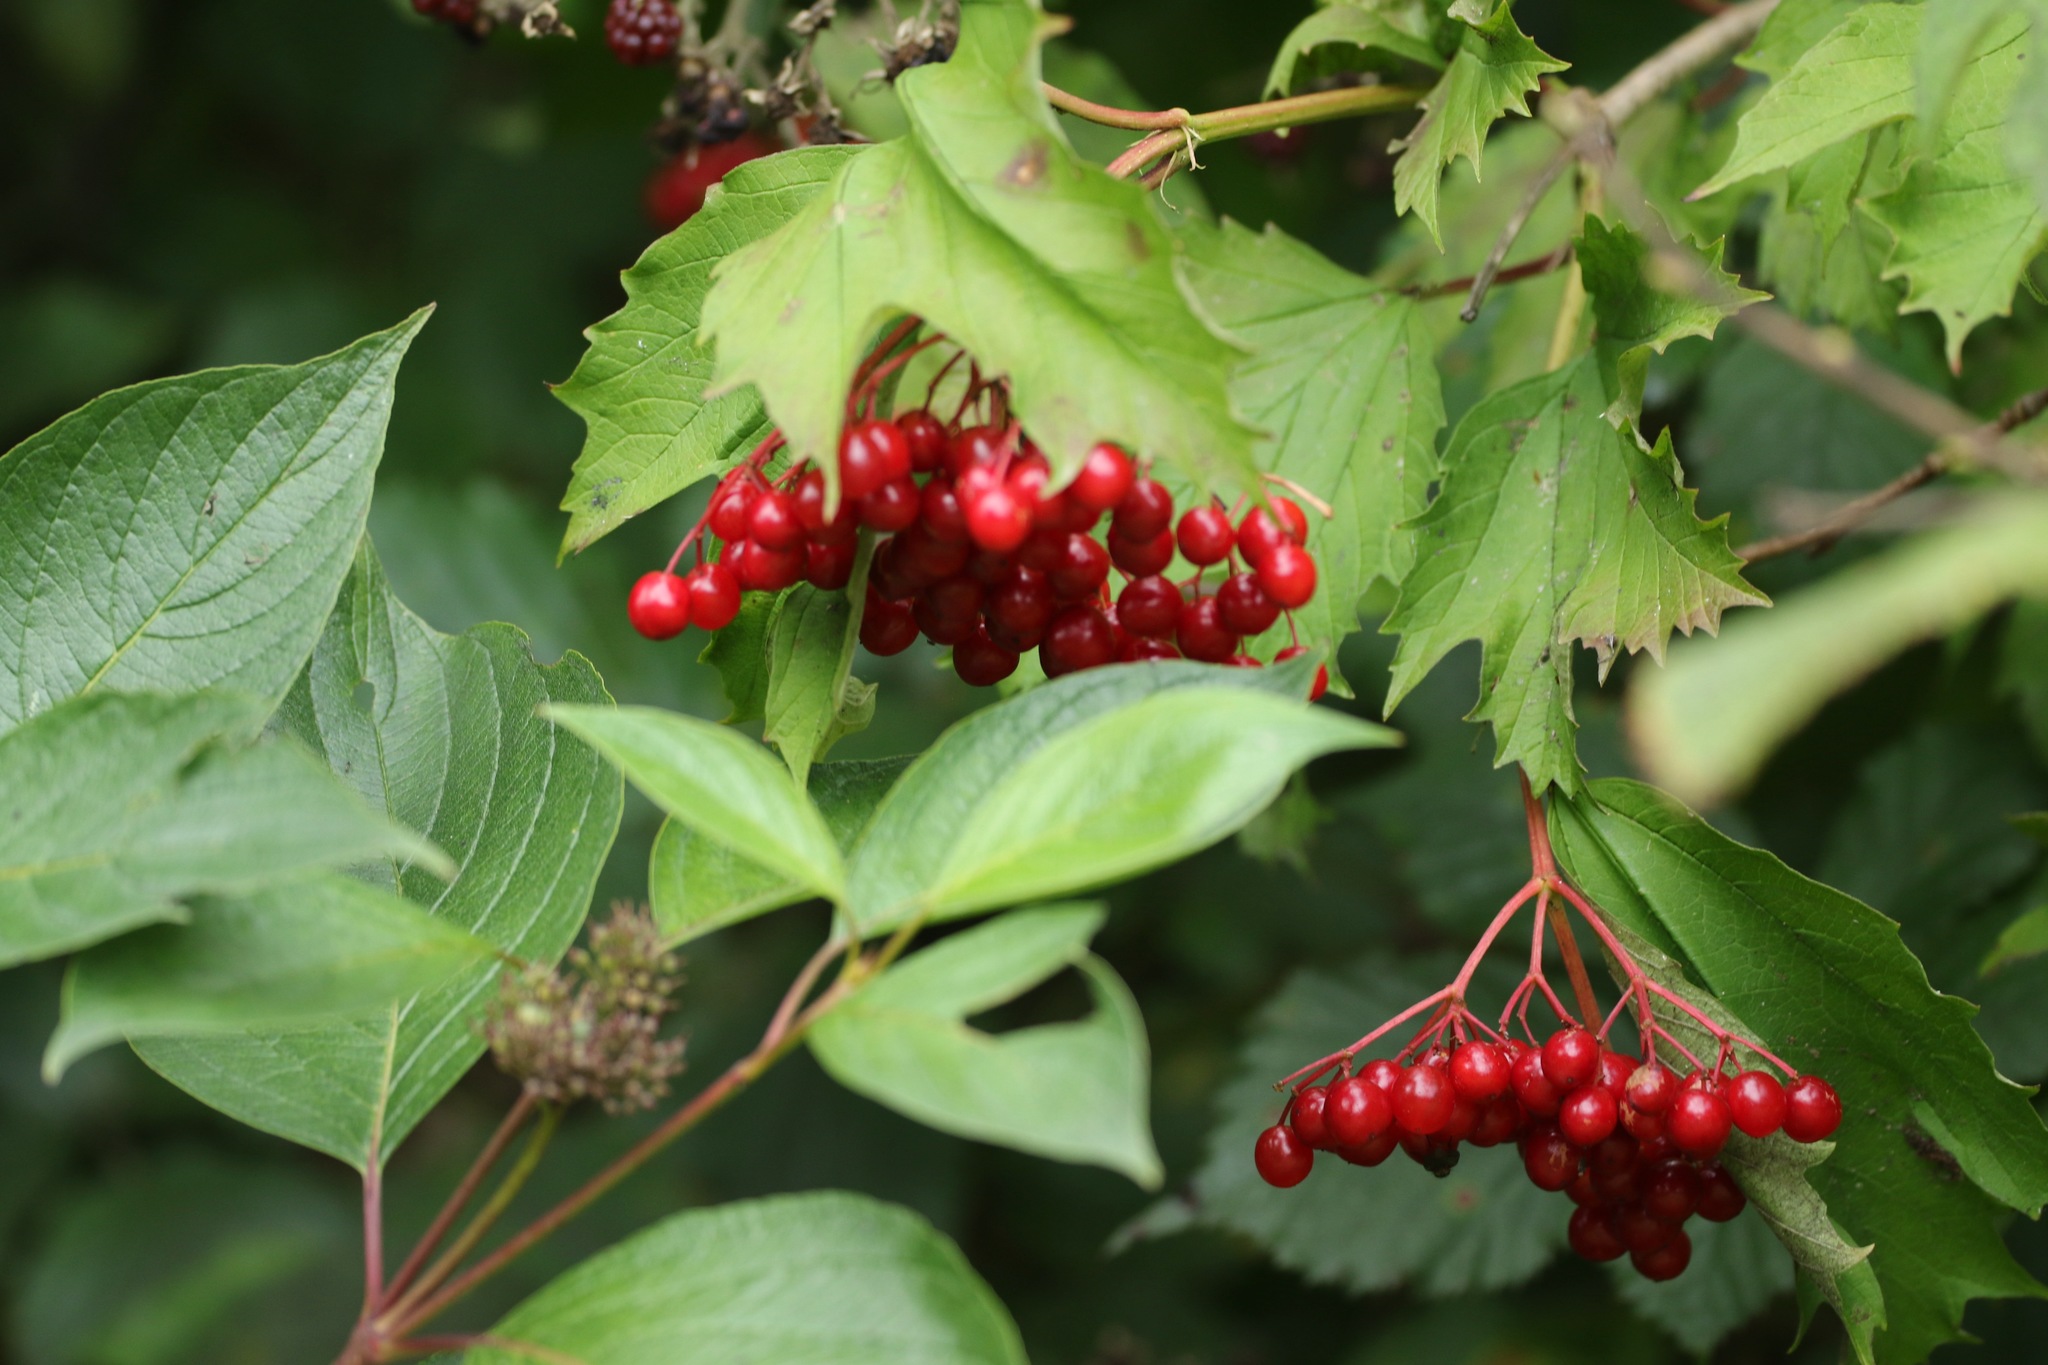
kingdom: Plantae
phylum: Tracheophyta
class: Magnoliopsida
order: Dipsacales
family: Viburnaceae
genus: Viburnum
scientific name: Viburnum opulus
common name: Guelder-rose
